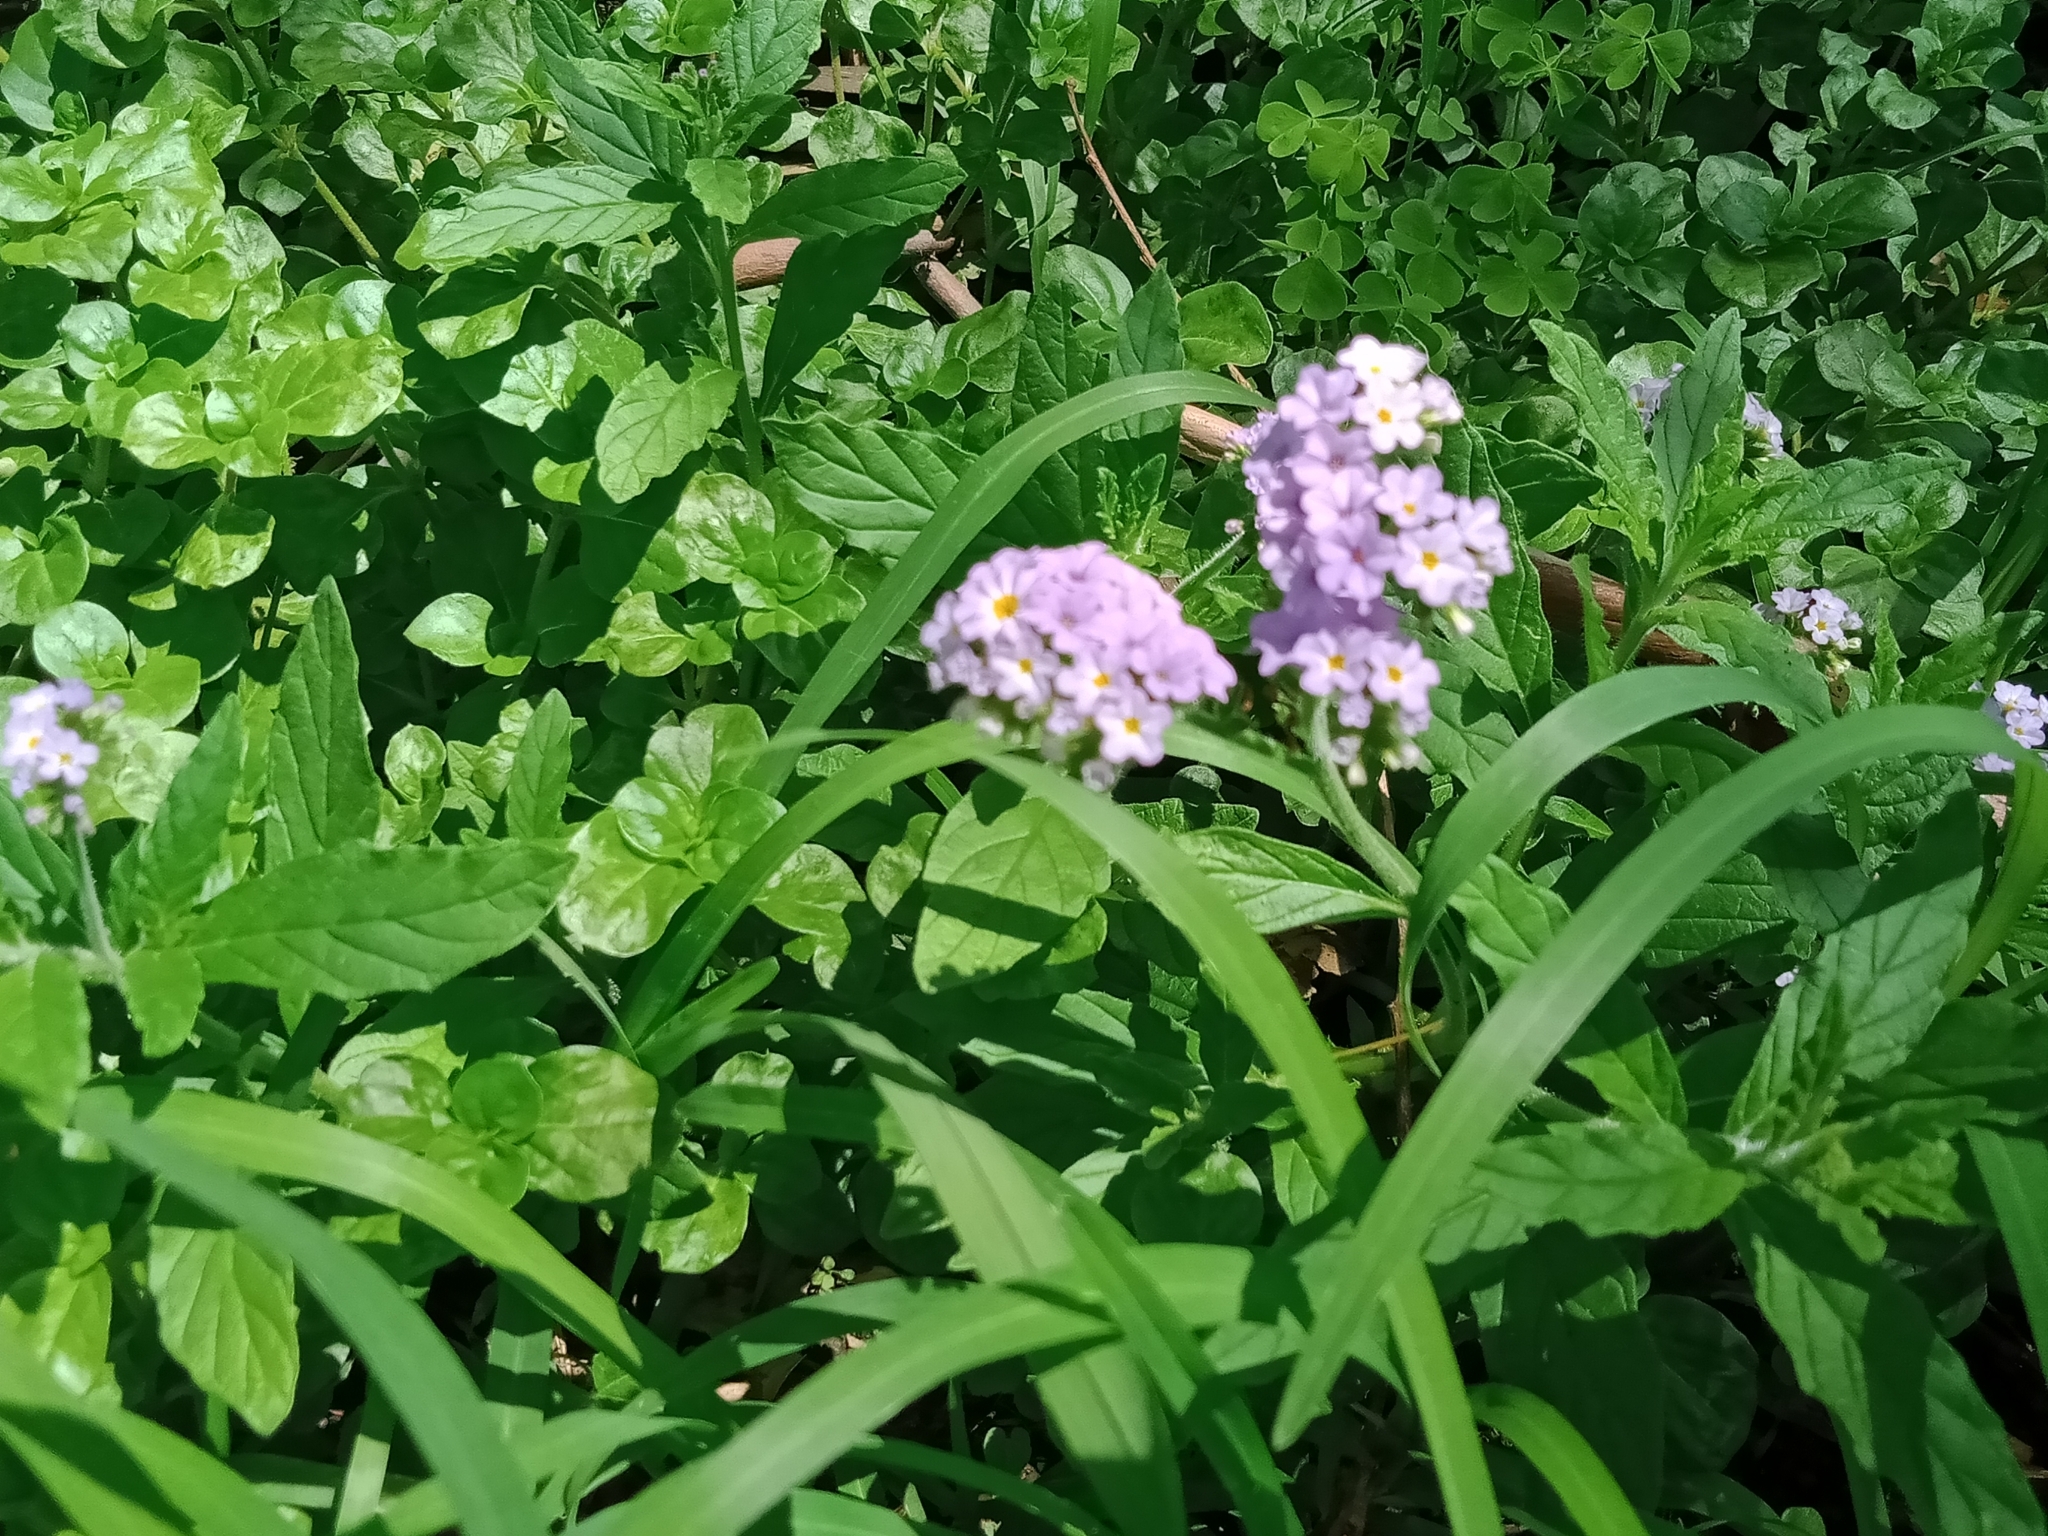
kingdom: Plantae
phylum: Tracheophyta
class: Magnoliopsida
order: Boraginales
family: Heliotropiaceae
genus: Heliotropium
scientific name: Heliotropium amplexicaule
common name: Clasping heliotrope
